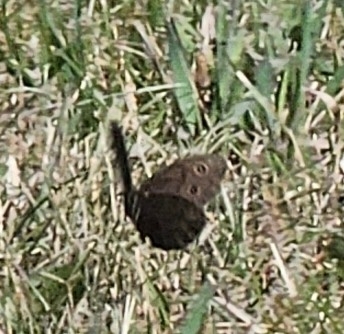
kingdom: Animalia
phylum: Arthropoda
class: Insecta
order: Lepidoptera
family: Nymphalidae
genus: Cercyonis
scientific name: Cercyonis pegala
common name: Common wood-nymph
